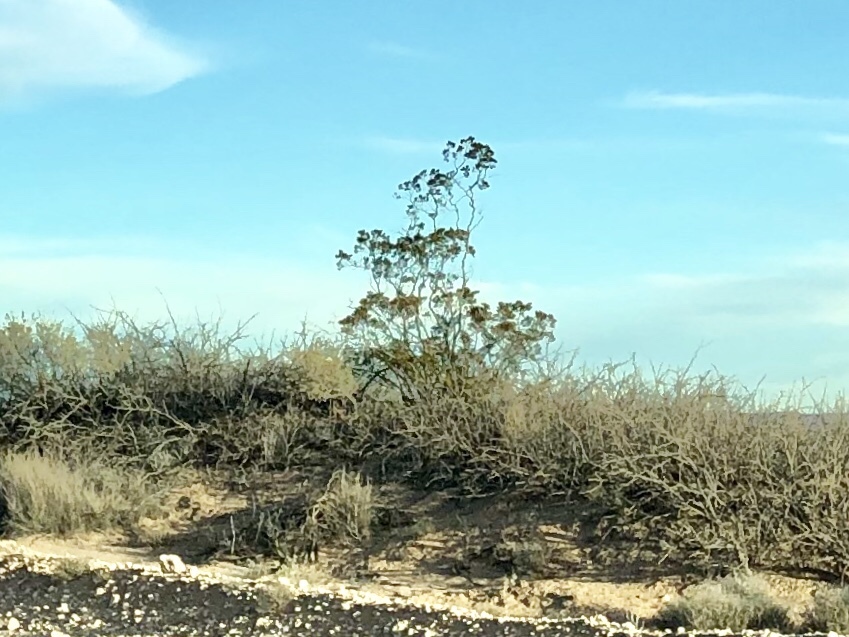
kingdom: Plantae
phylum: Tracheophyta
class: Magnoliopsida
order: Zygophyllales
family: Zygophyllaceae
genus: Larrea
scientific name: Larrea tridentata
